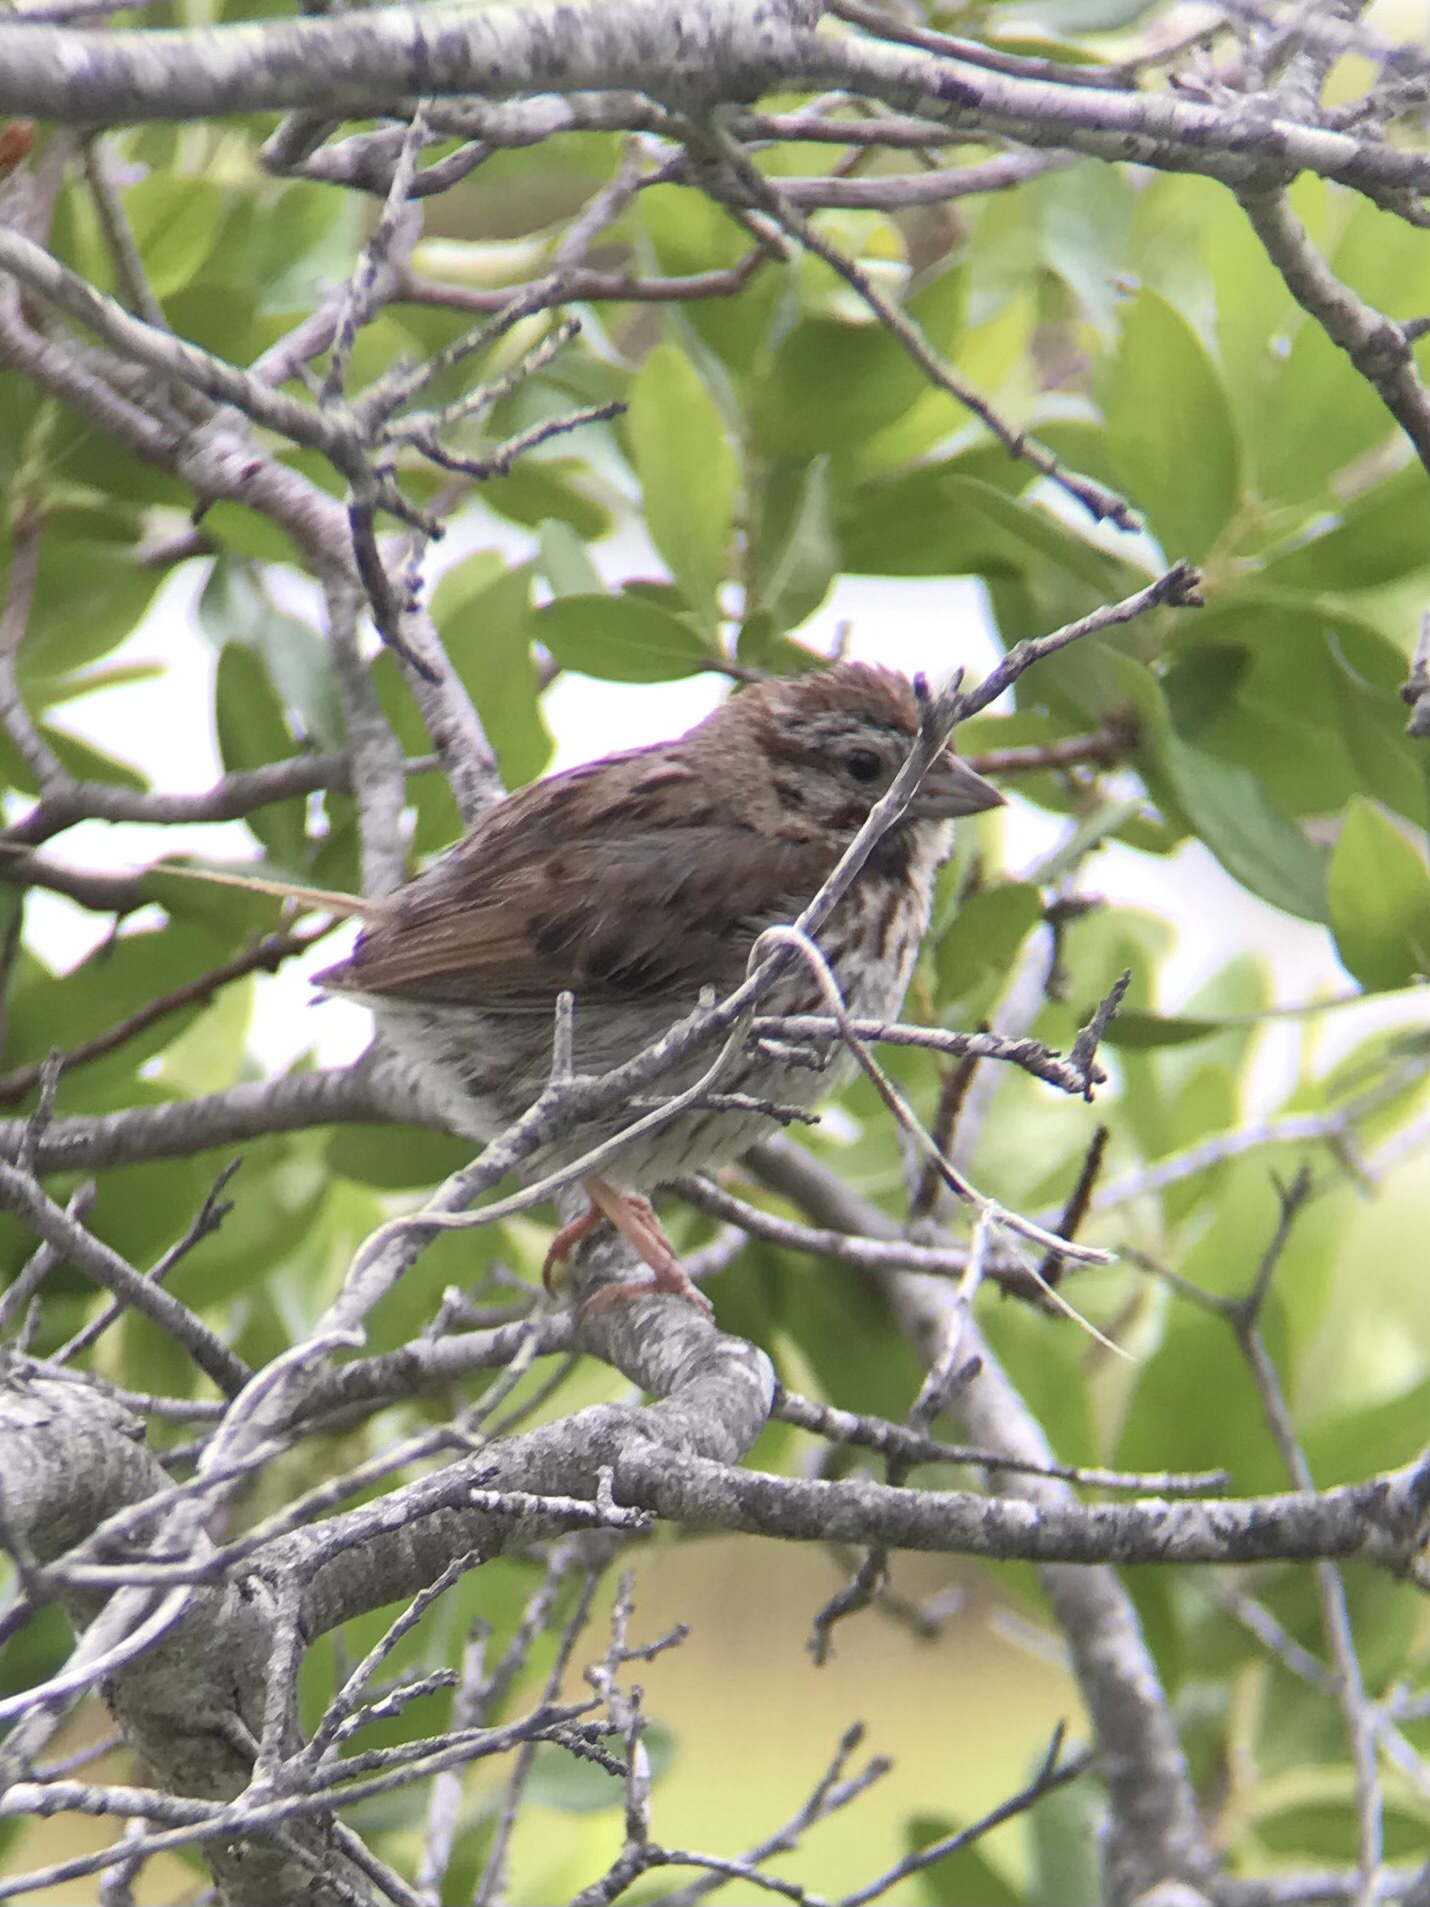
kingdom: Animalia
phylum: Chordata
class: Aves
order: Passeriformes
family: Passerellidae
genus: Melospiza
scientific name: Melospiza melodia
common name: Song sparrow
